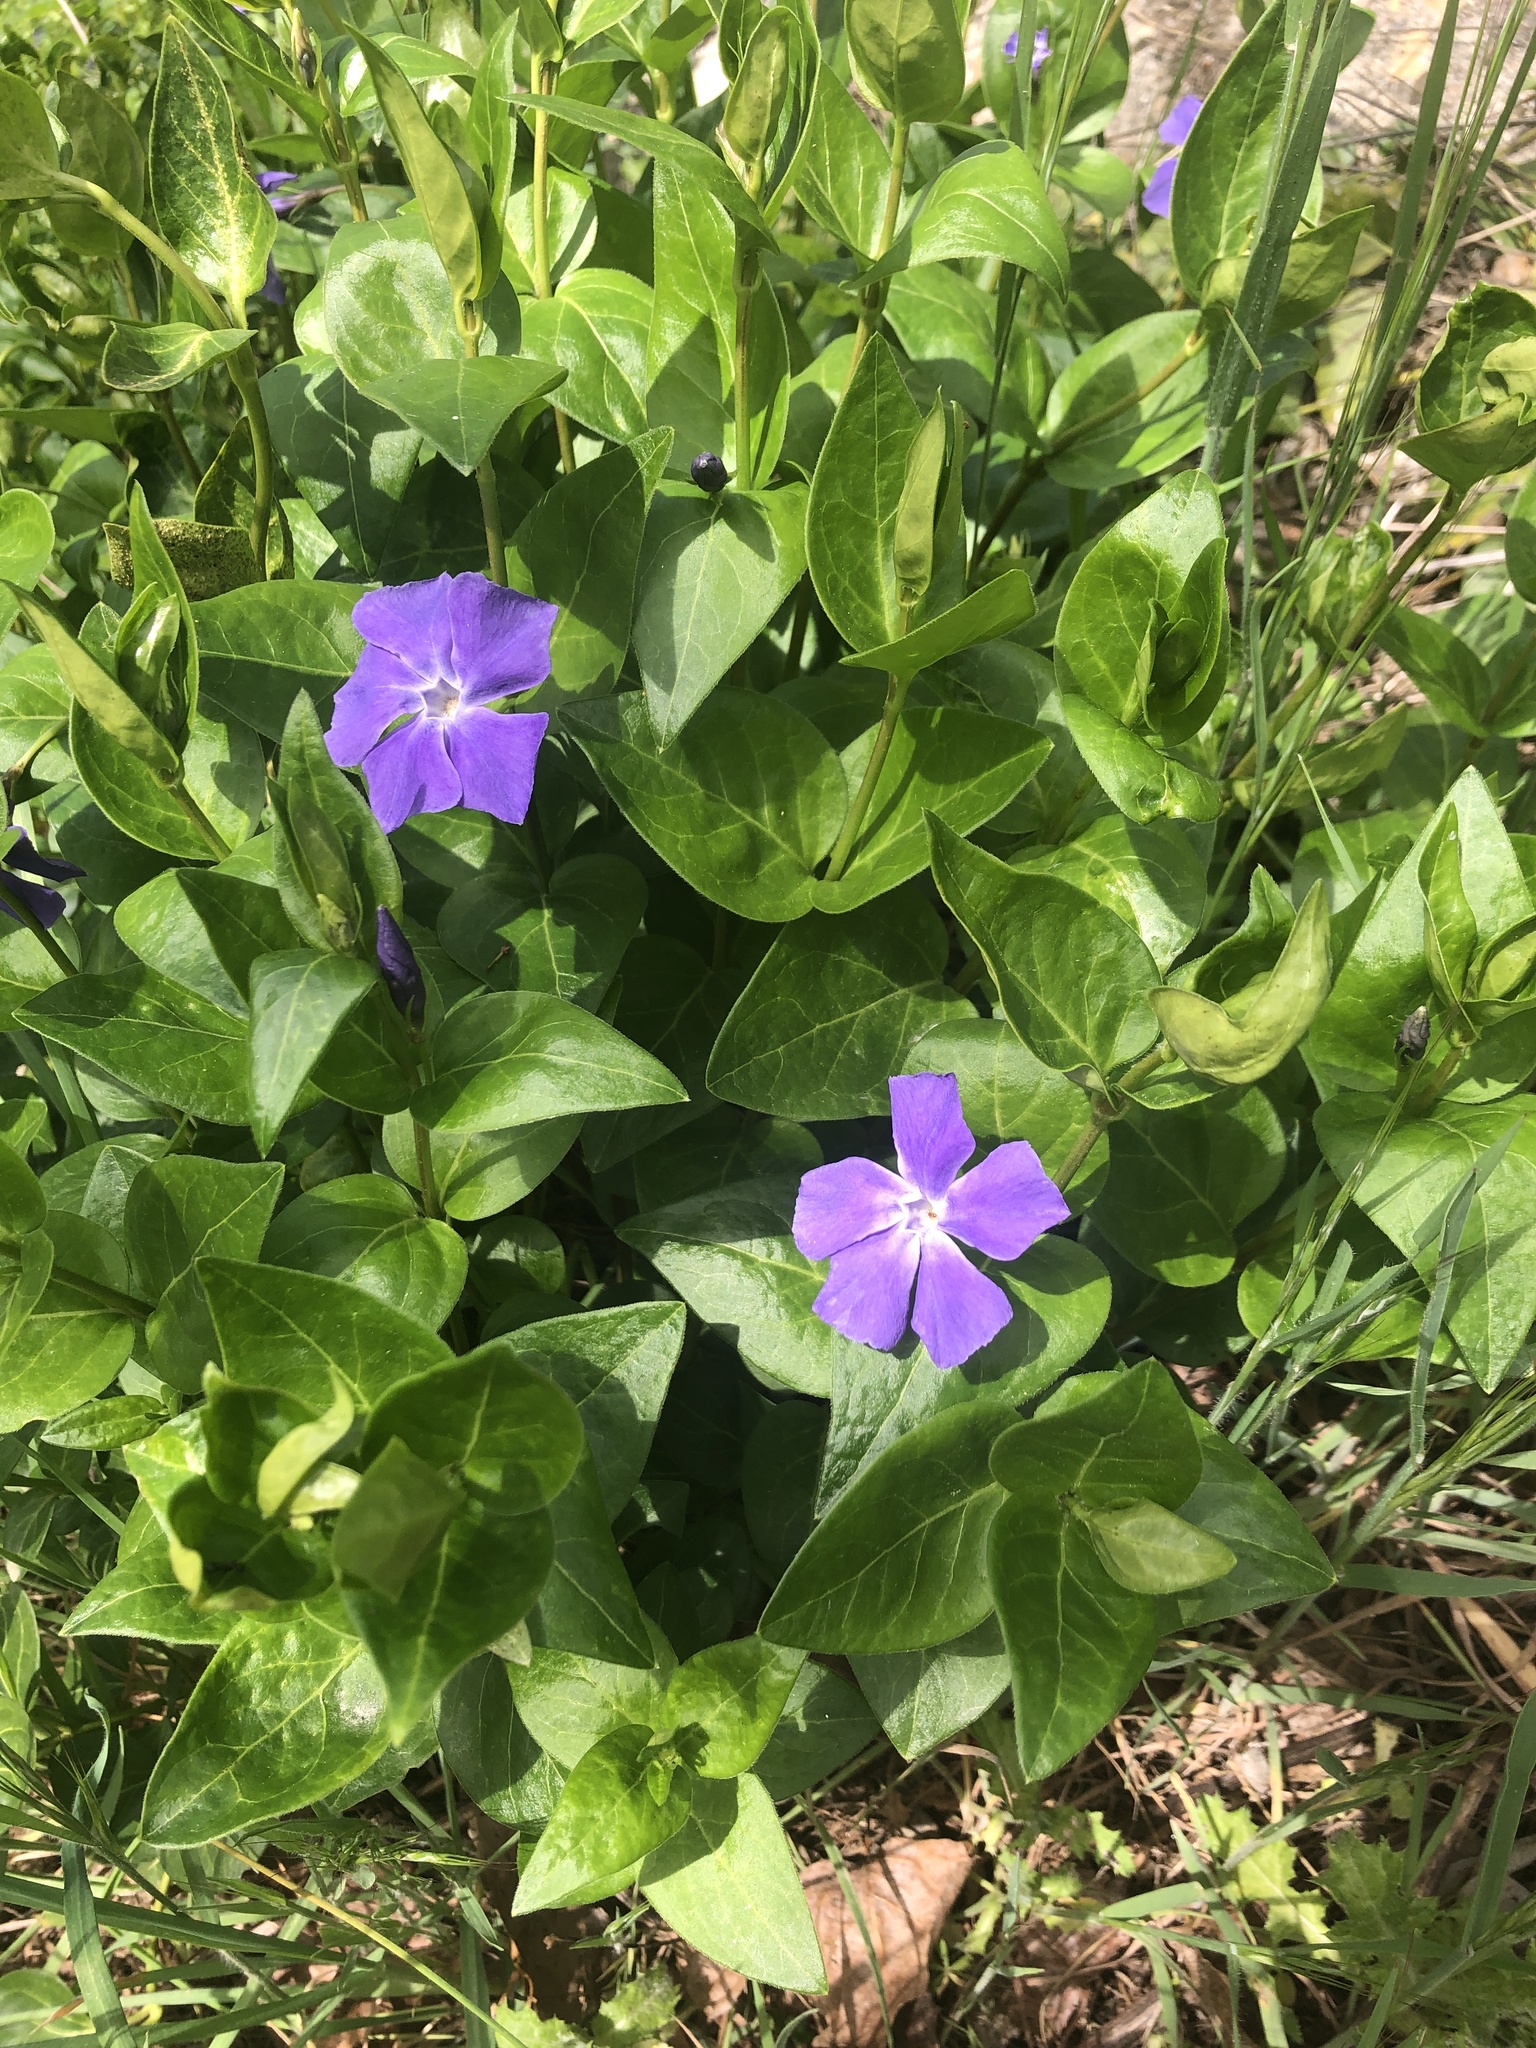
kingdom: Plantae
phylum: Tracheophyta
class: Magnoliopsida
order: Gentianales
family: Apocynaceae
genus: Vinca
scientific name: Vinca major
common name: Greater periwinkle
